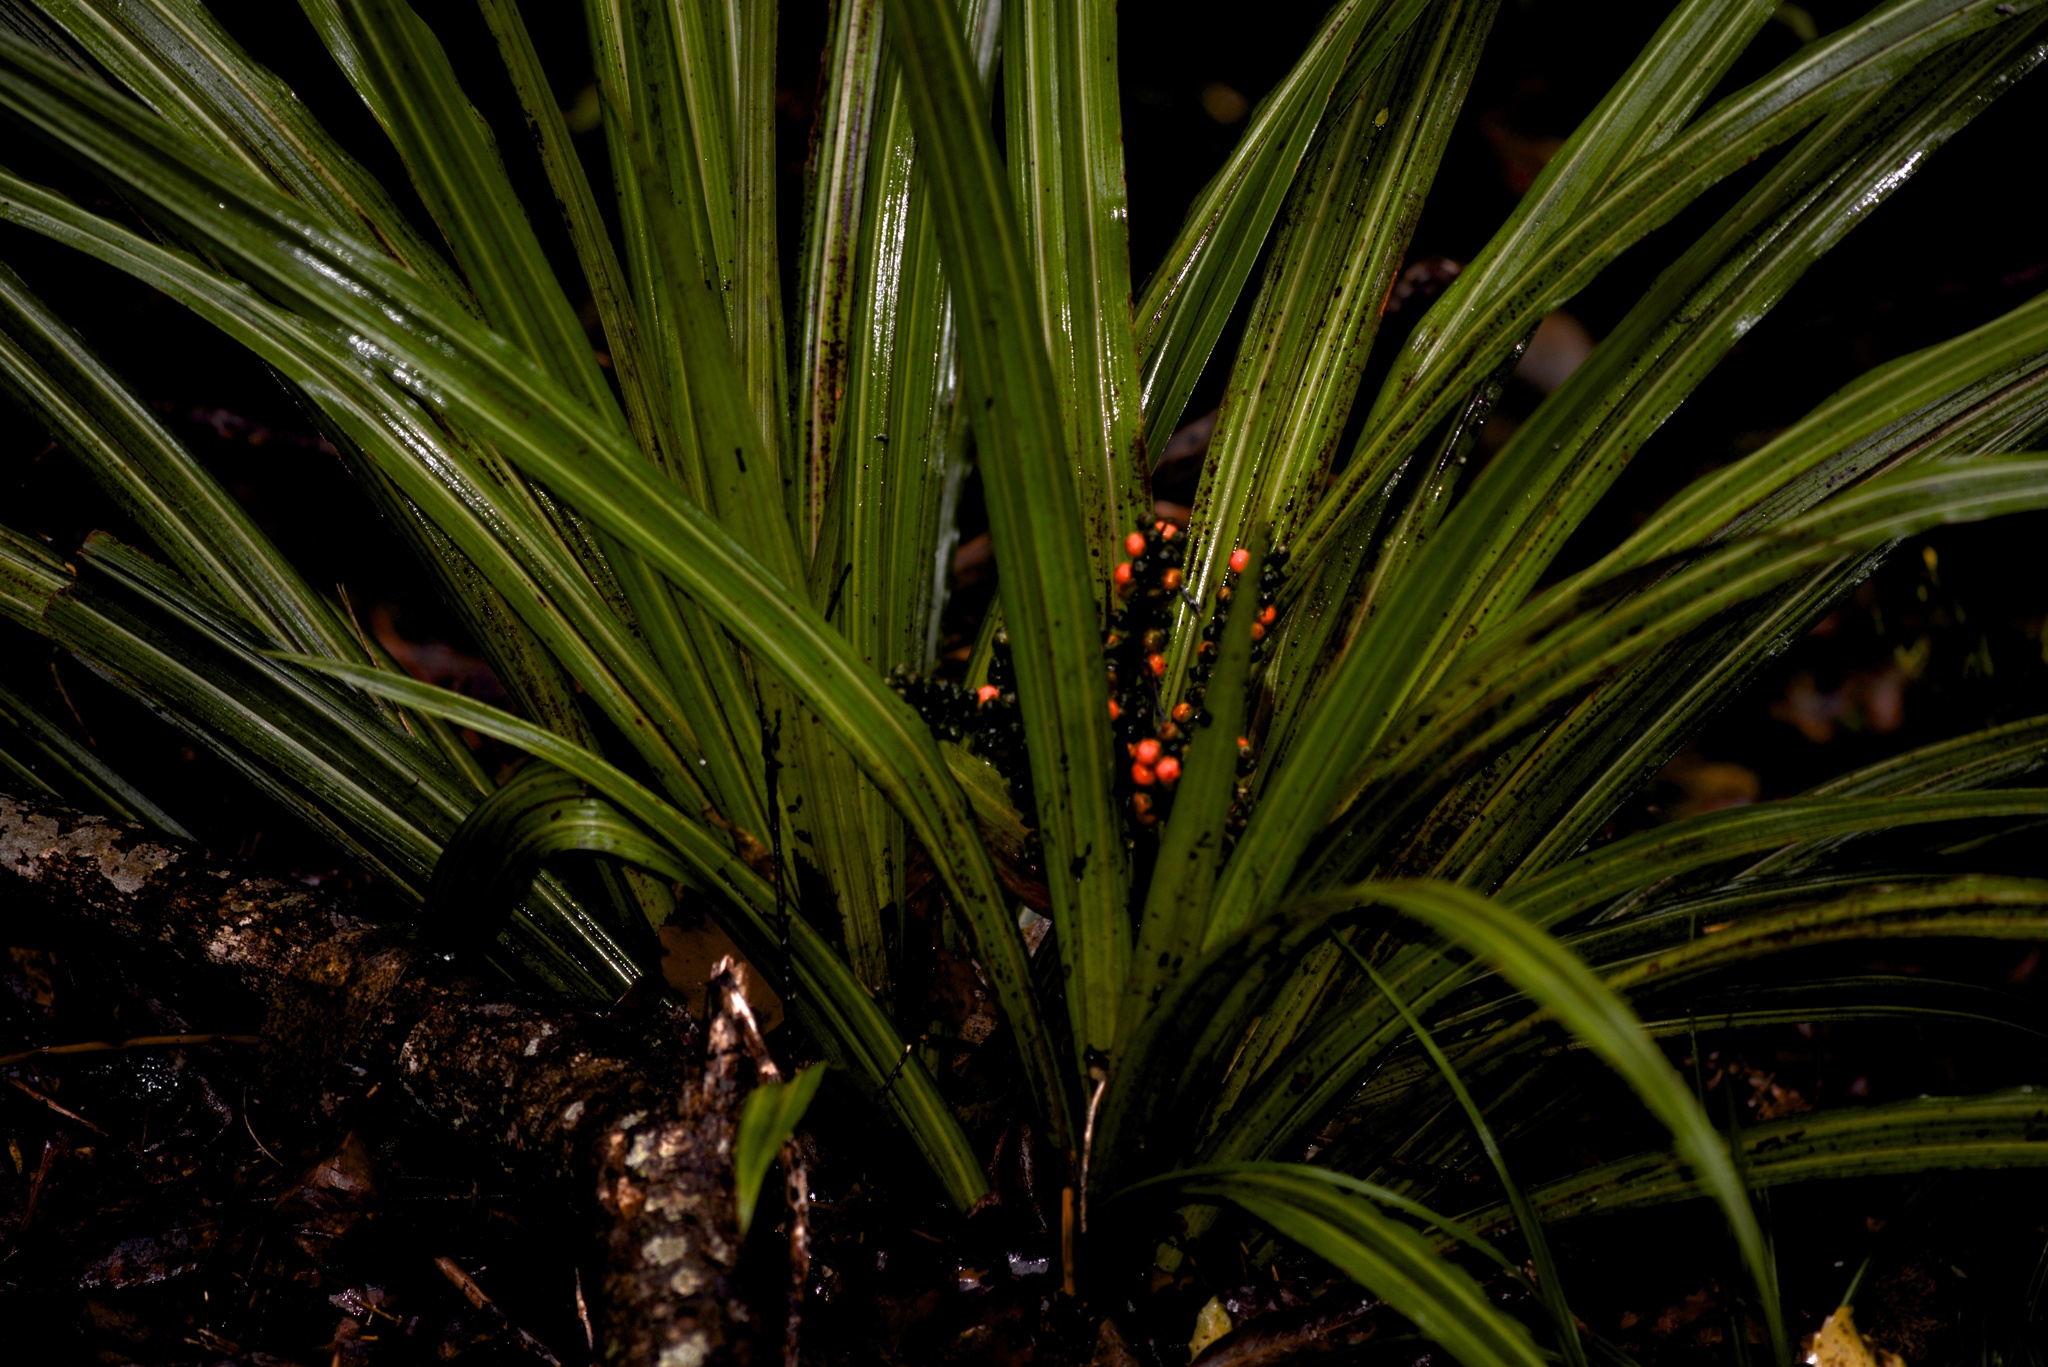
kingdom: Plantae
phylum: Tracheophyta
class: Liliopsida
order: Asparagales
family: Asteliaceae
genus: Astelia
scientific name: Astelia fragrans
